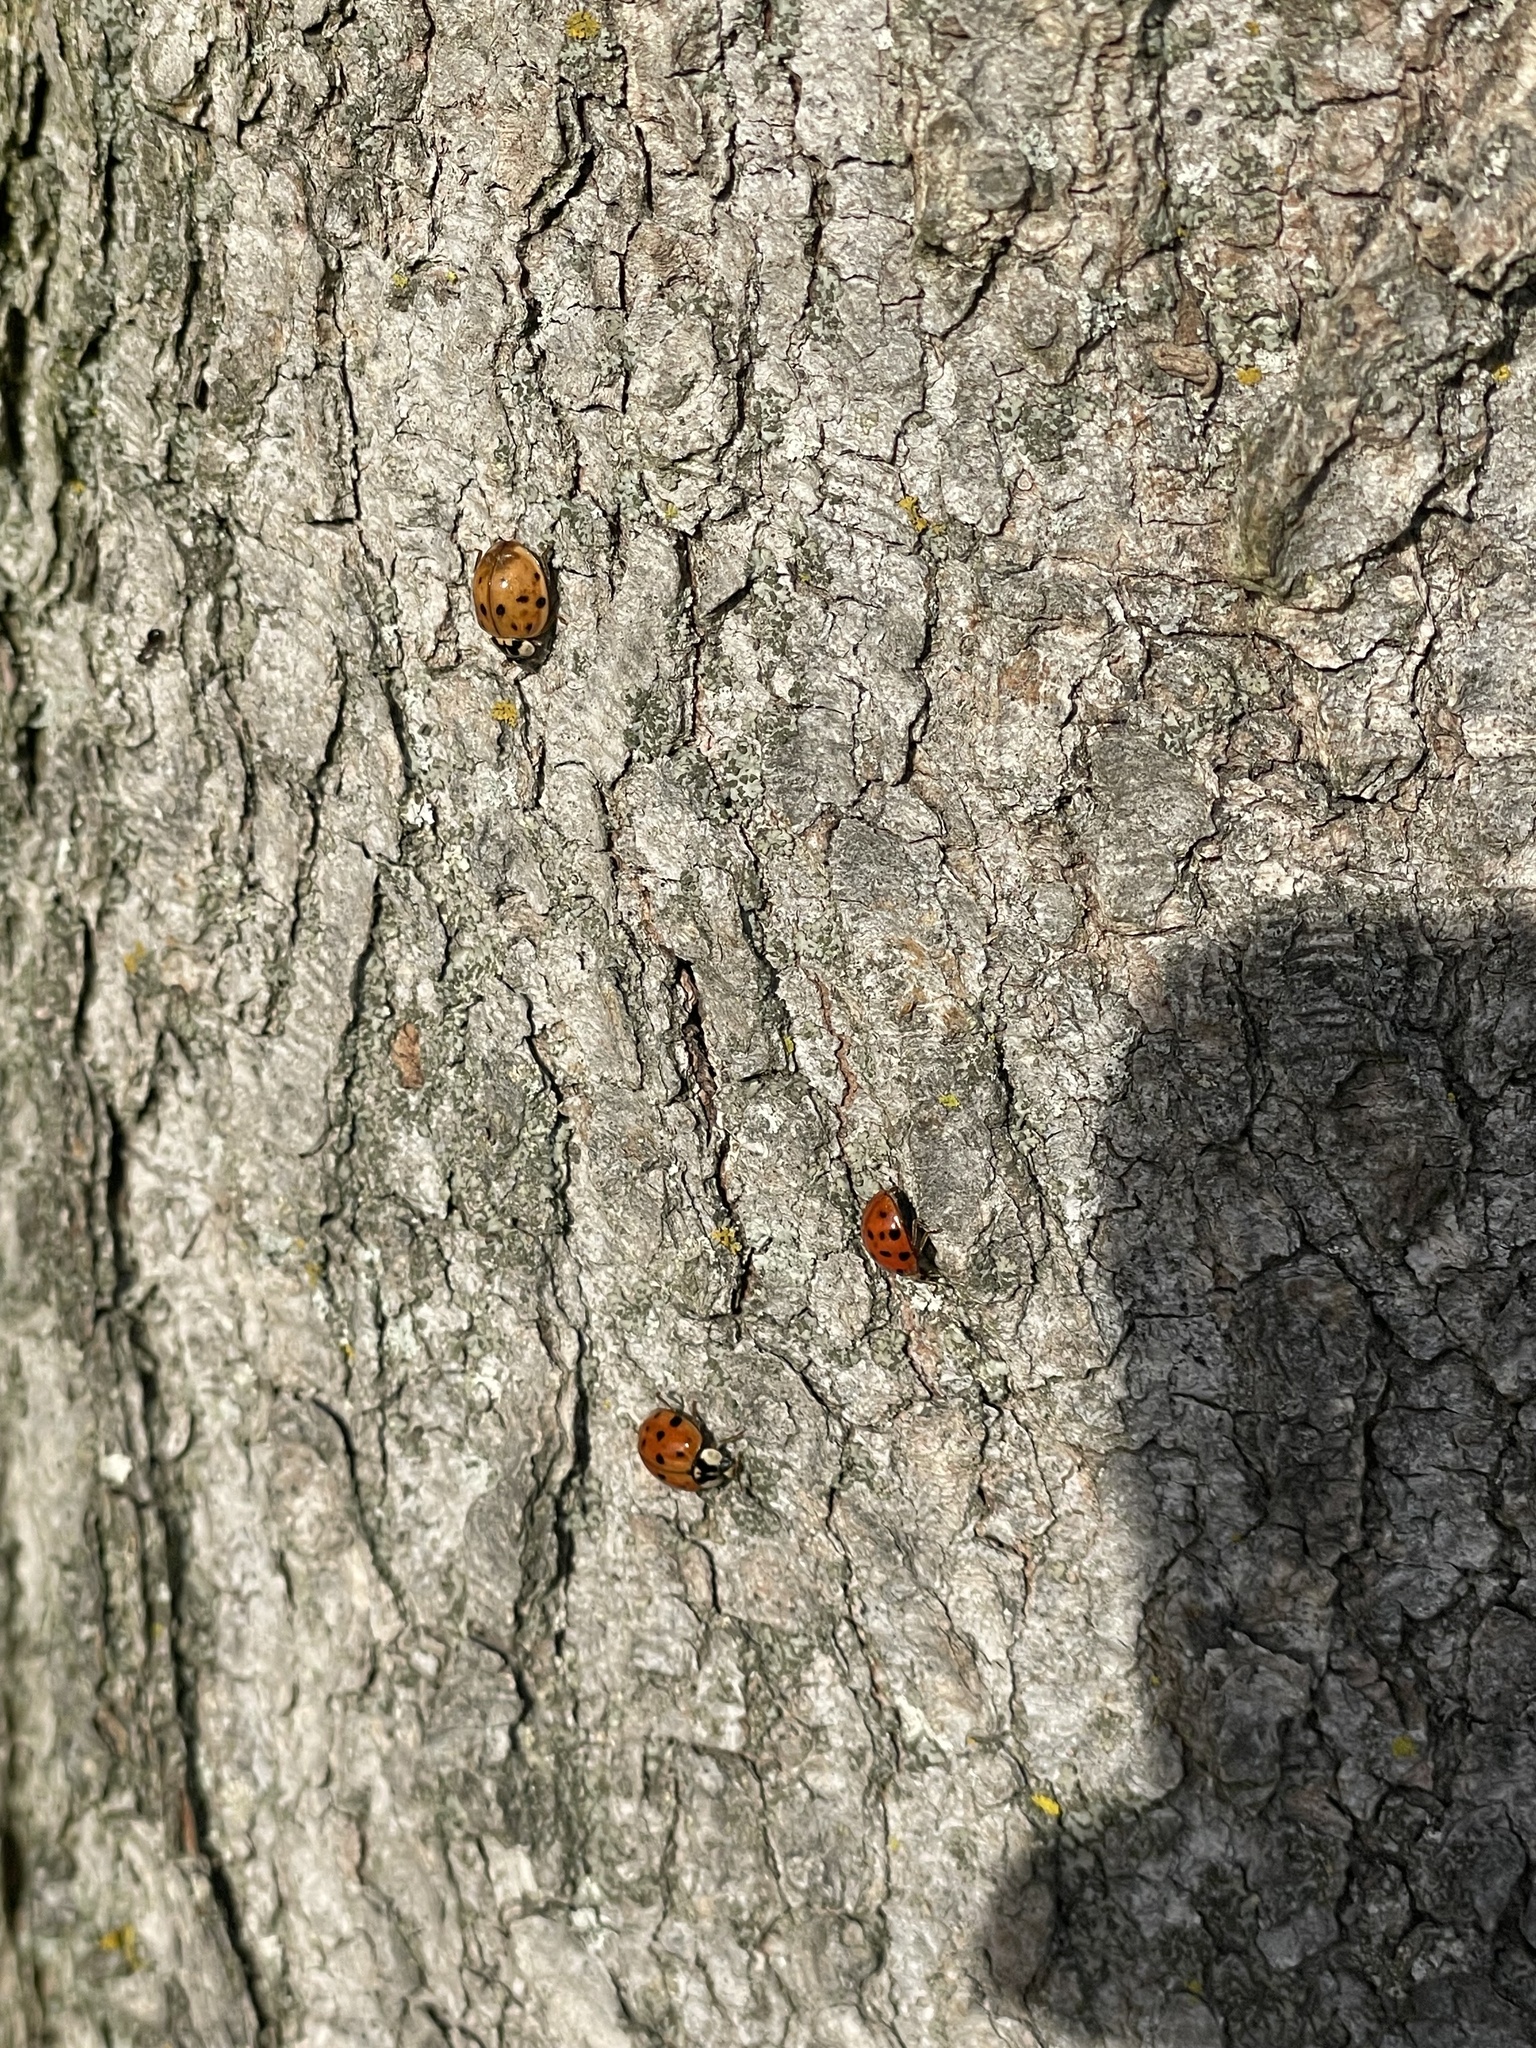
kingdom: Animalia
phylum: Arthropoda
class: Insecta
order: Coleoptera
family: Coccinellidae
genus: Harmonia
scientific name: Harmonia axyridis
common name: Harlequin ladybird
